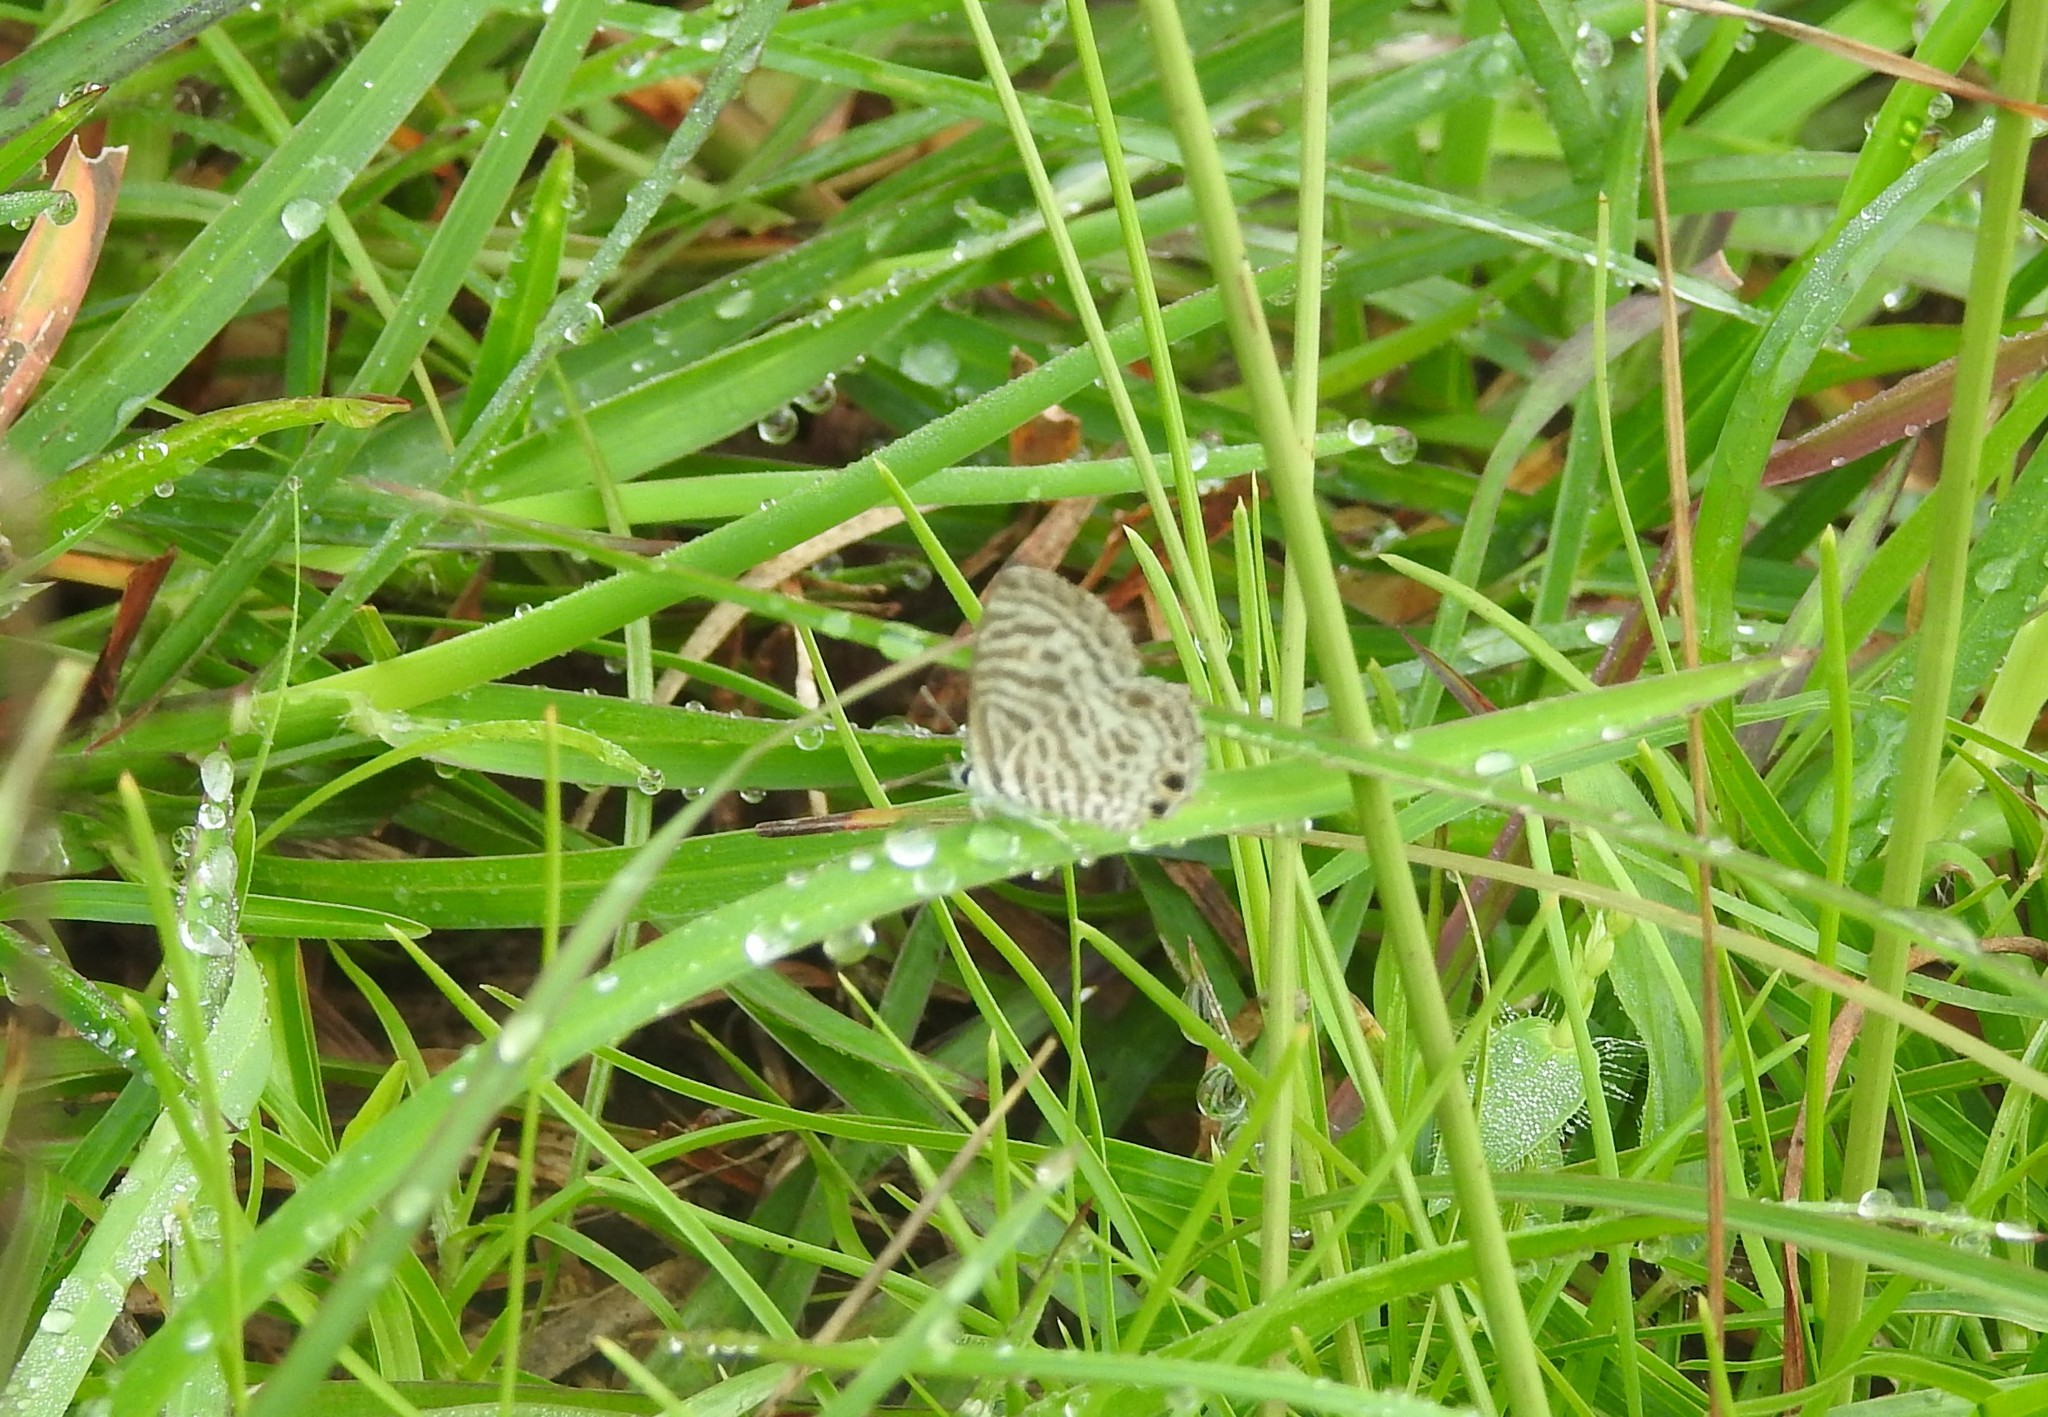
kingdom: Animalia
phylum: Arthropoda
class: Insecta
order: Lepidoptera
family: Lycaenidae
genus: Leptotes
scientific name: Leptotes plinius
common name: Zebra blue
